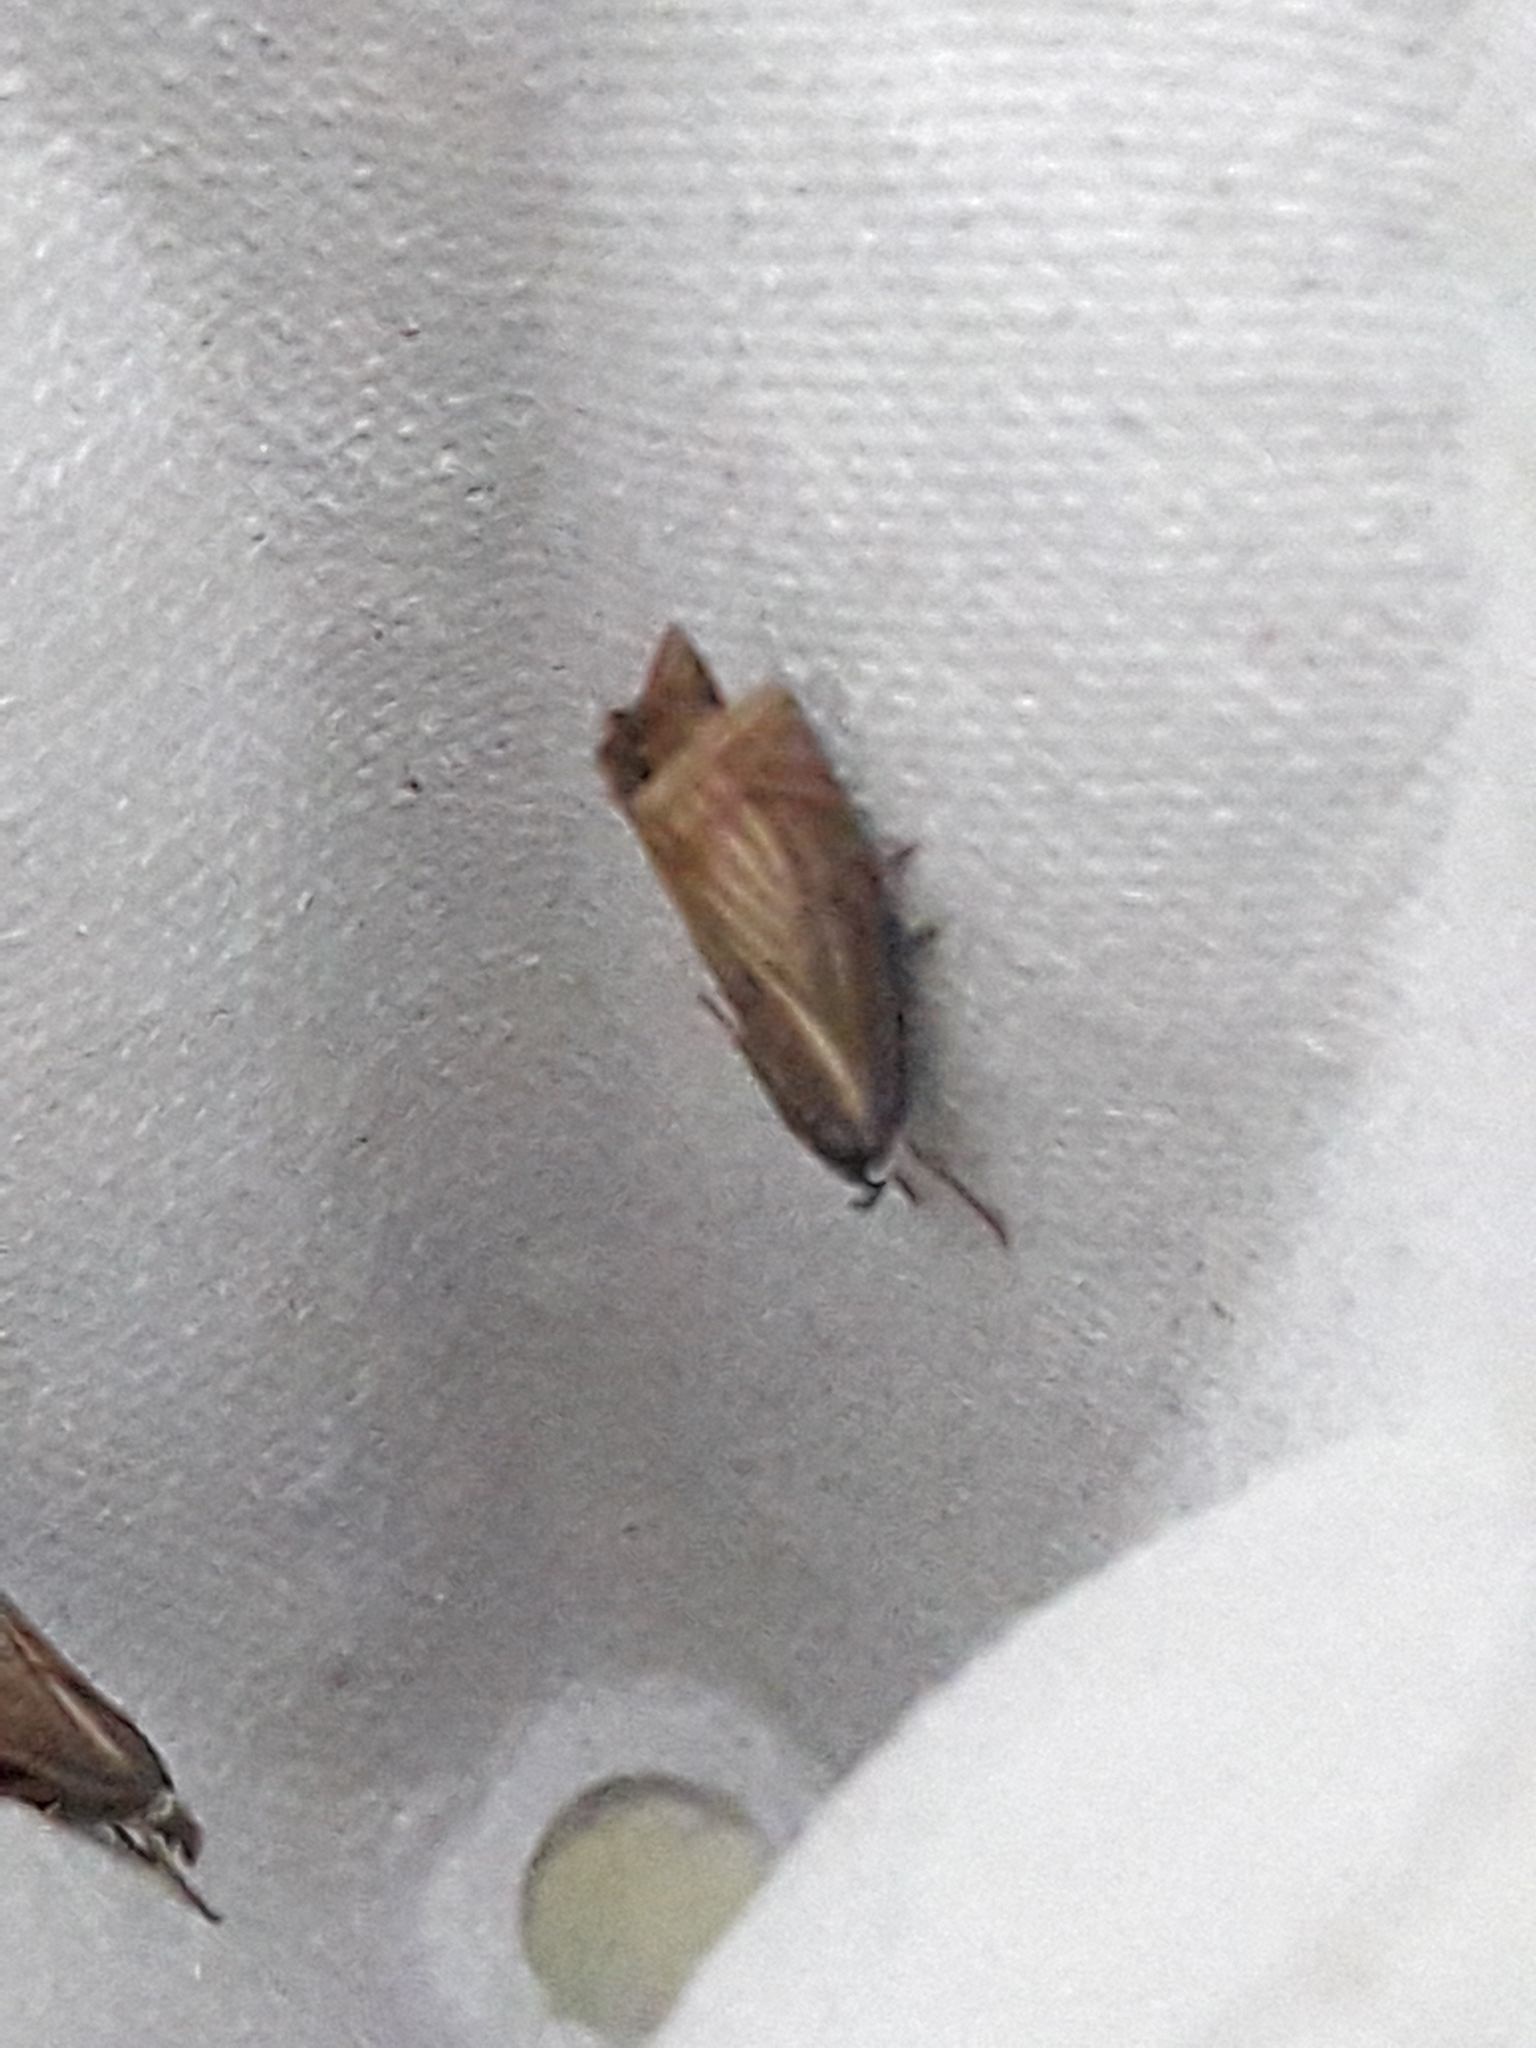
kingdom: Animalia
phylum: Arthropoda
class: Insecta
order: Lepidoptera
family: Crambidae
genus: Chrysoteuchia
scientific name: Chrysoteuchia culmella
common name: Garden grass-veneer
